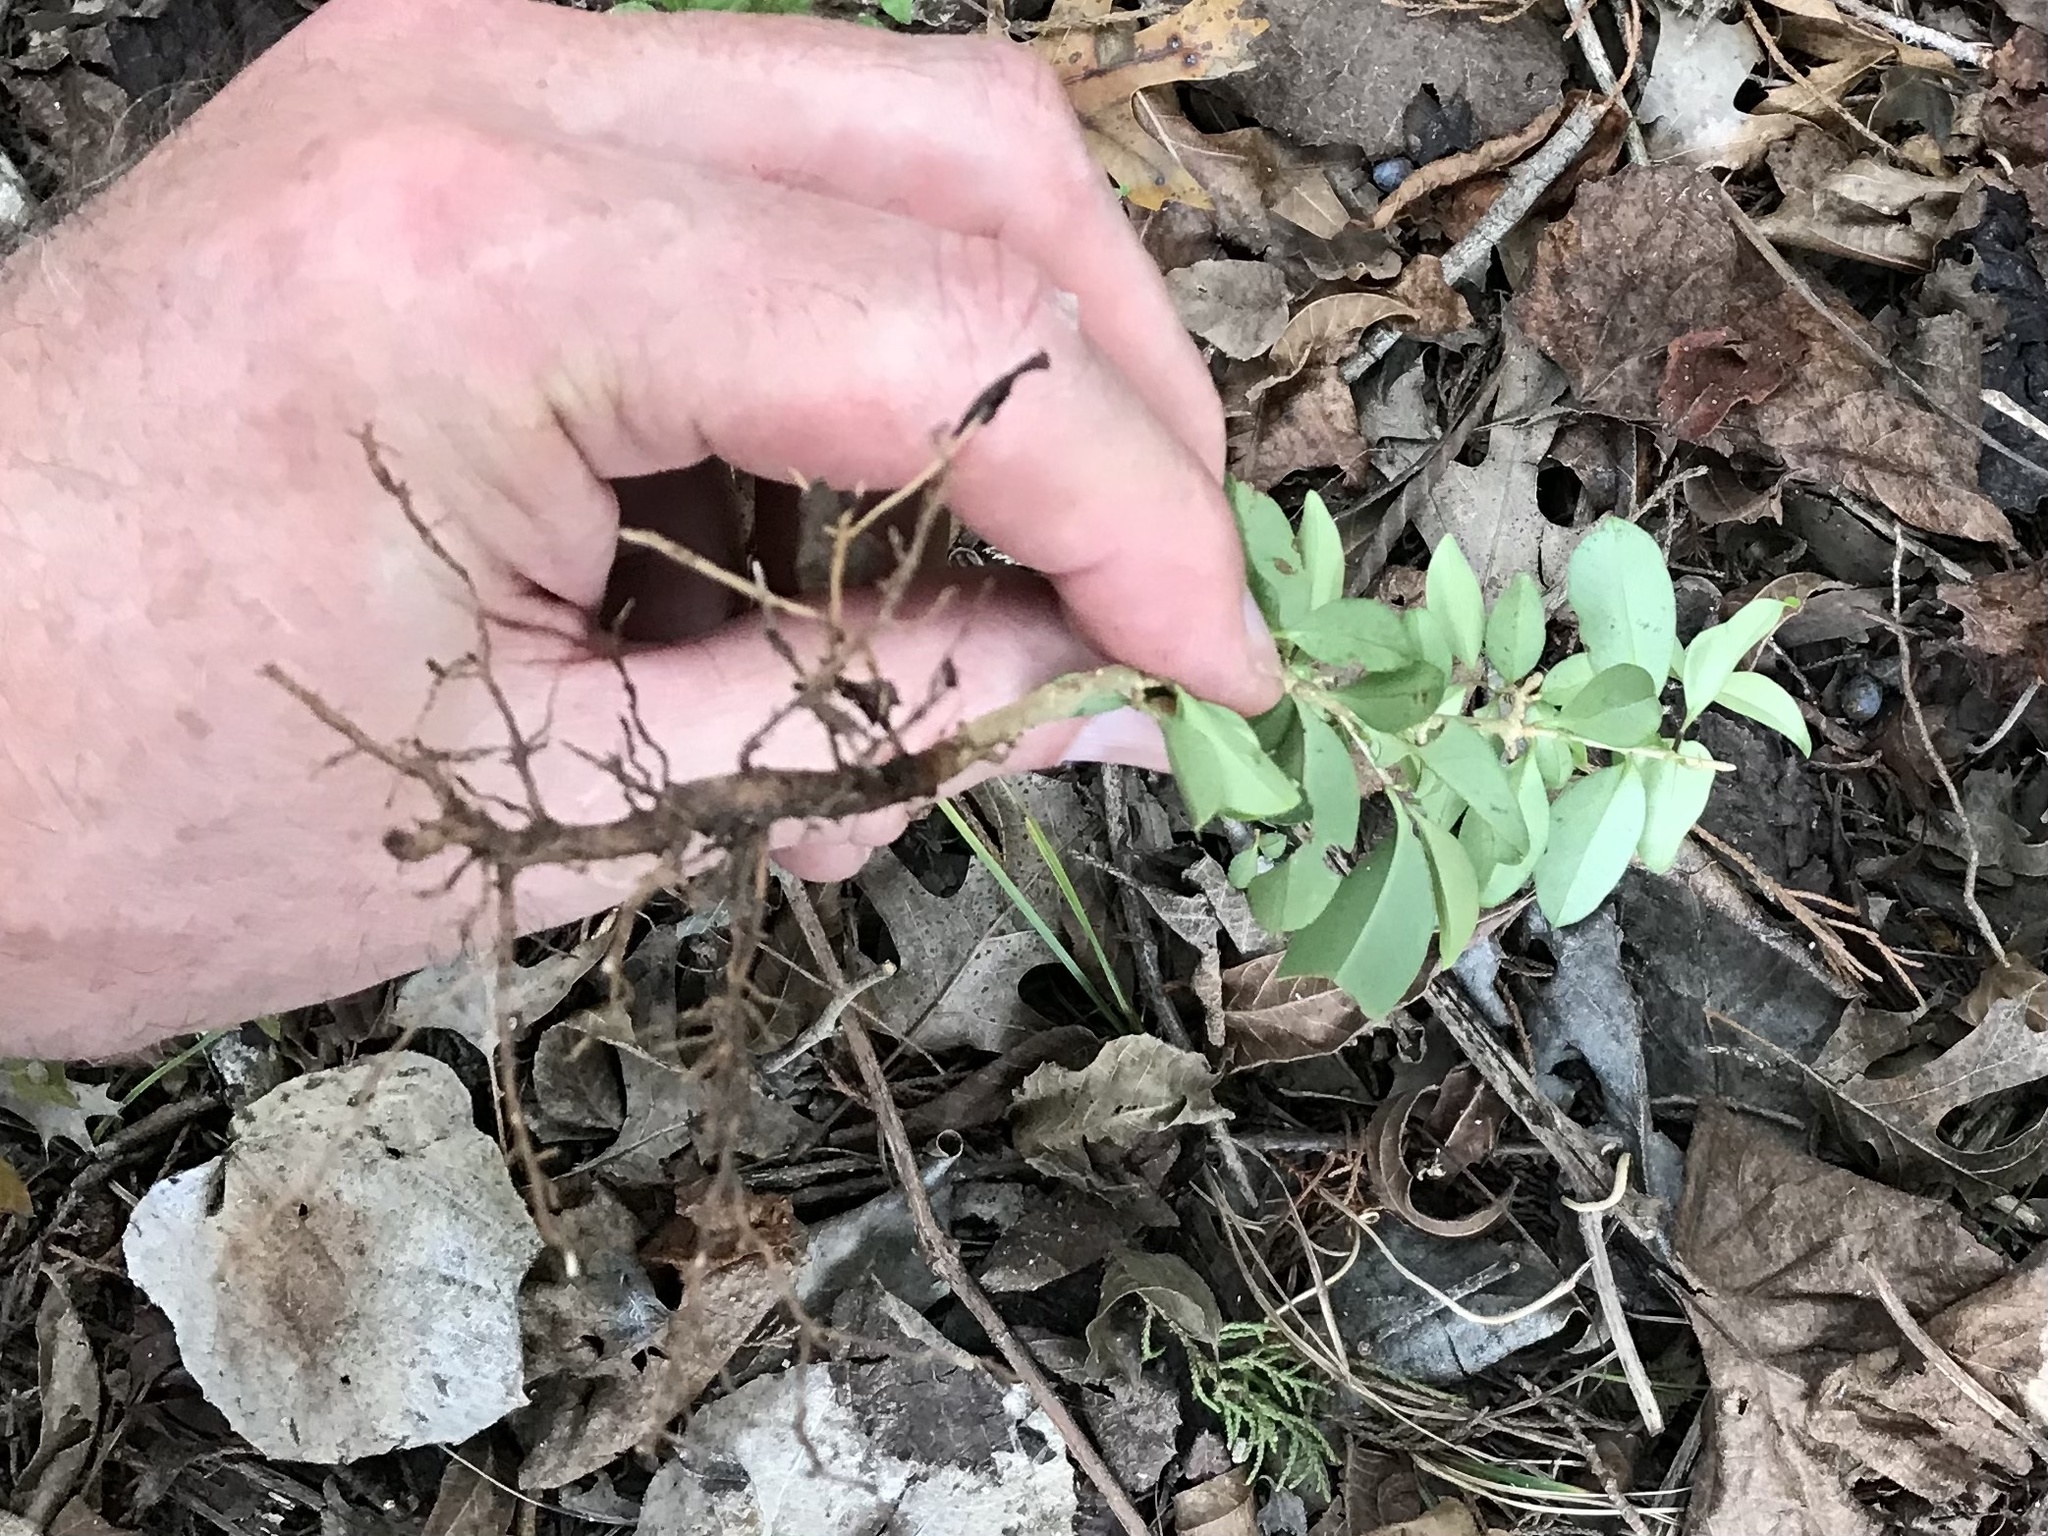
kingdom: Plantae
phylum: Tracheophyta
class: Magnoliopsida
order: Lamiales
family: Oleaceae
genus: Ligustrum
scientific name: Ligustrum lucidum
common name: Glossy privet
